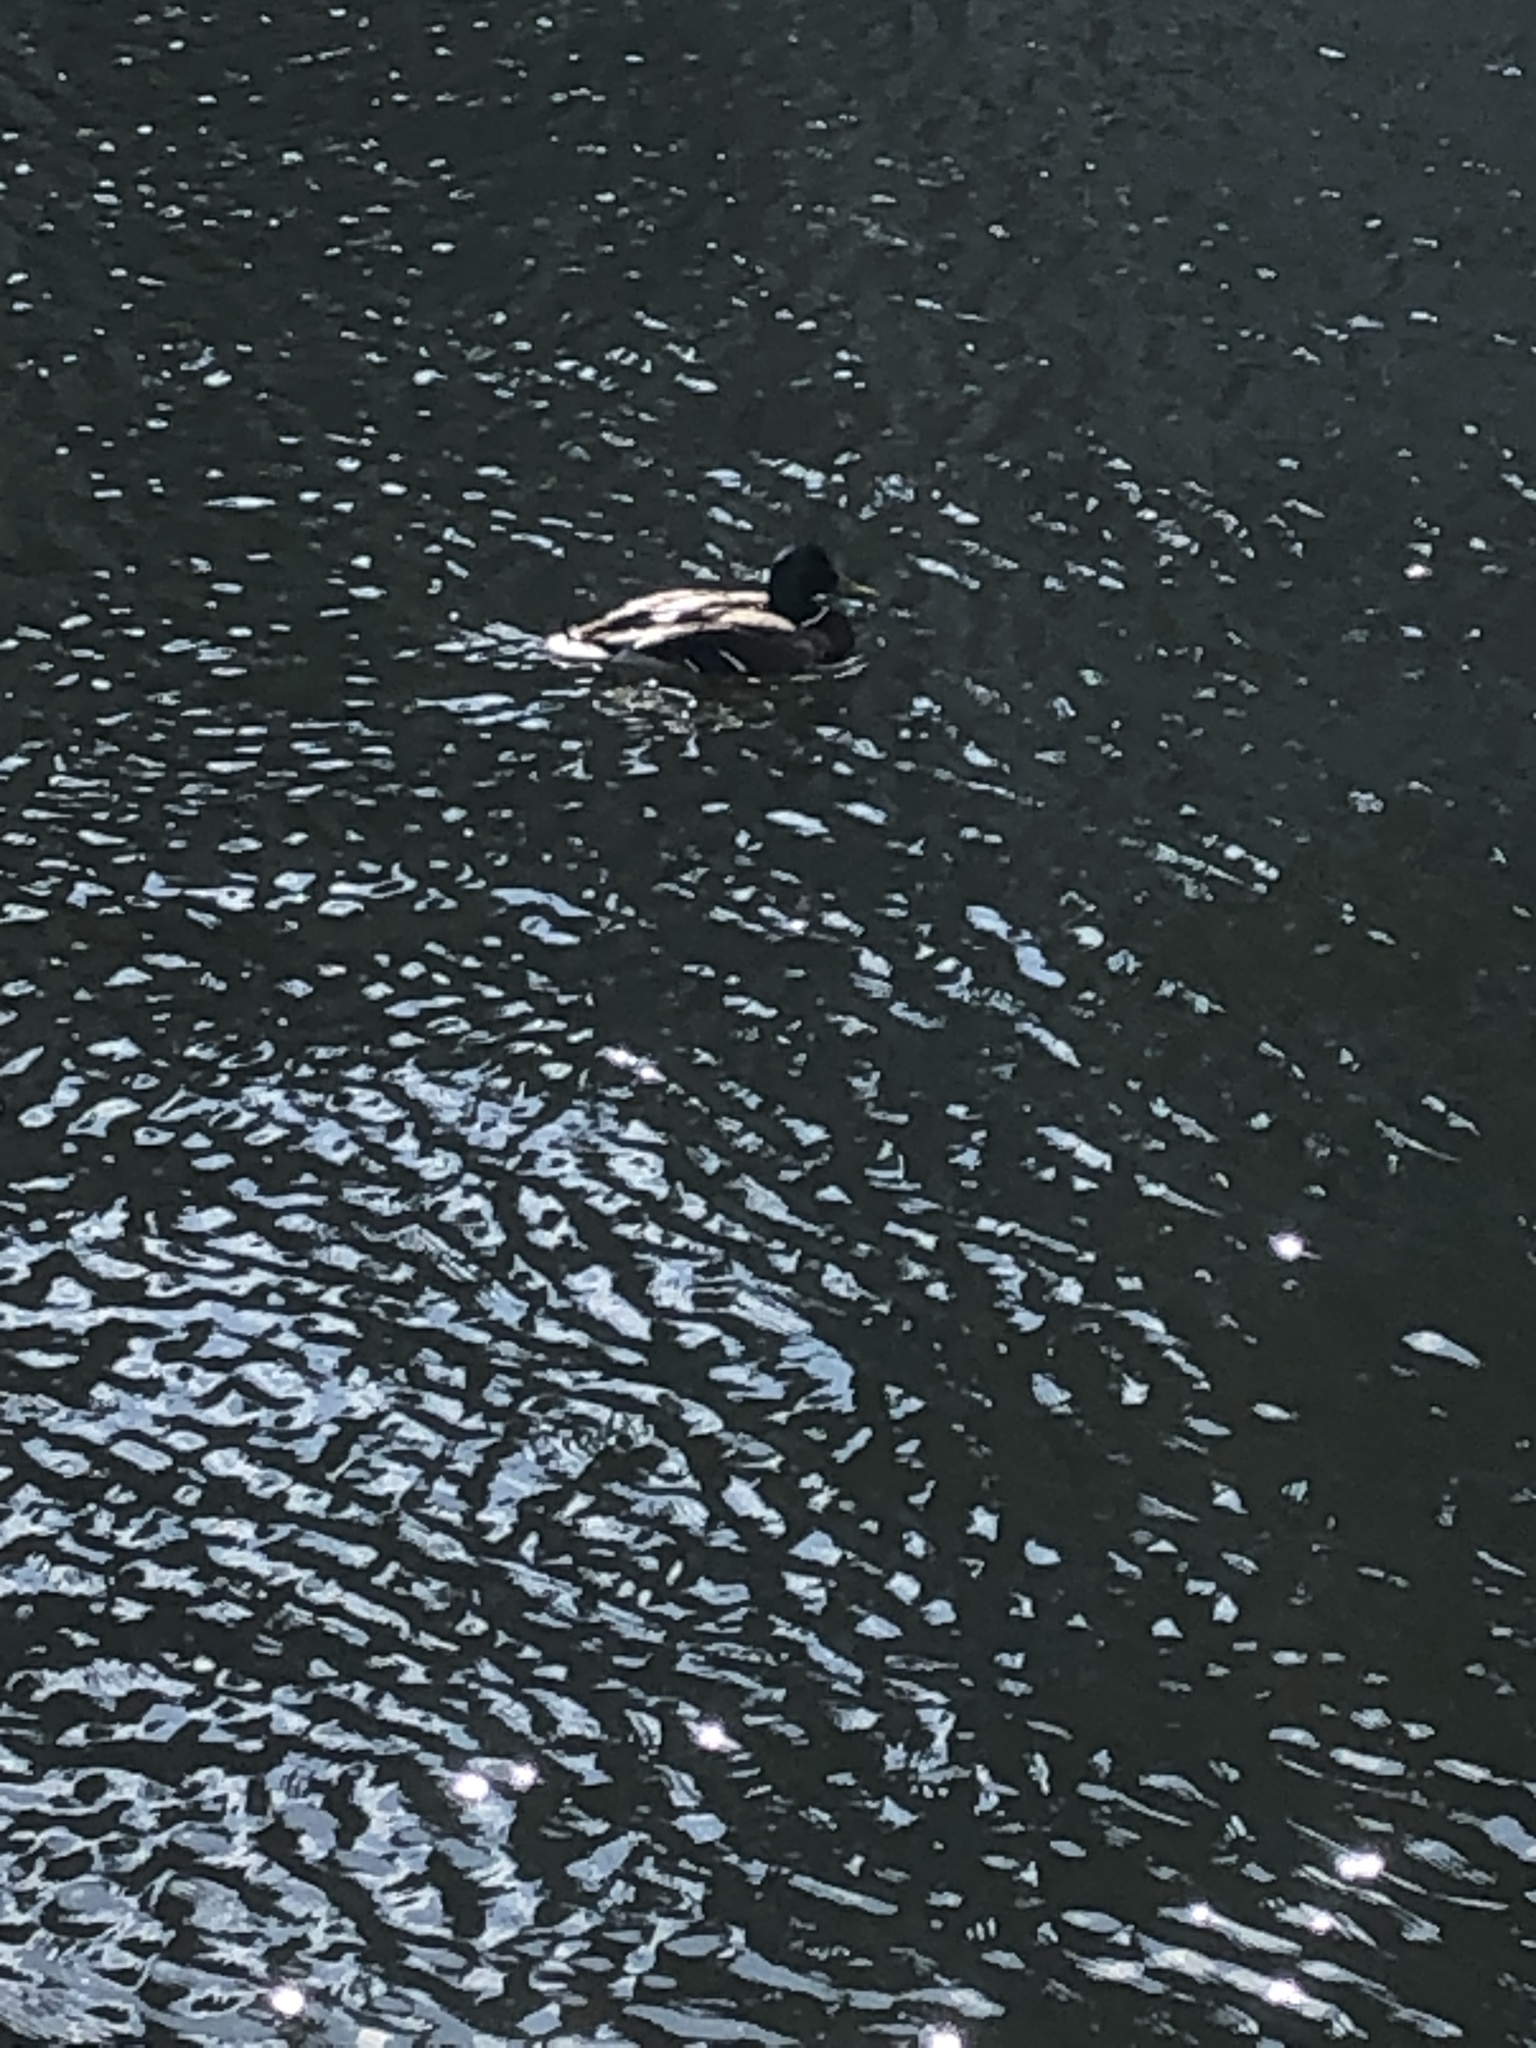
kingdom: Animalia
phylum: Chordata
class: Aves
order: Anseriformes
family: Anatidae
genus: Anas
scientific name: Anas platyrhynchos
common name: Mallard
